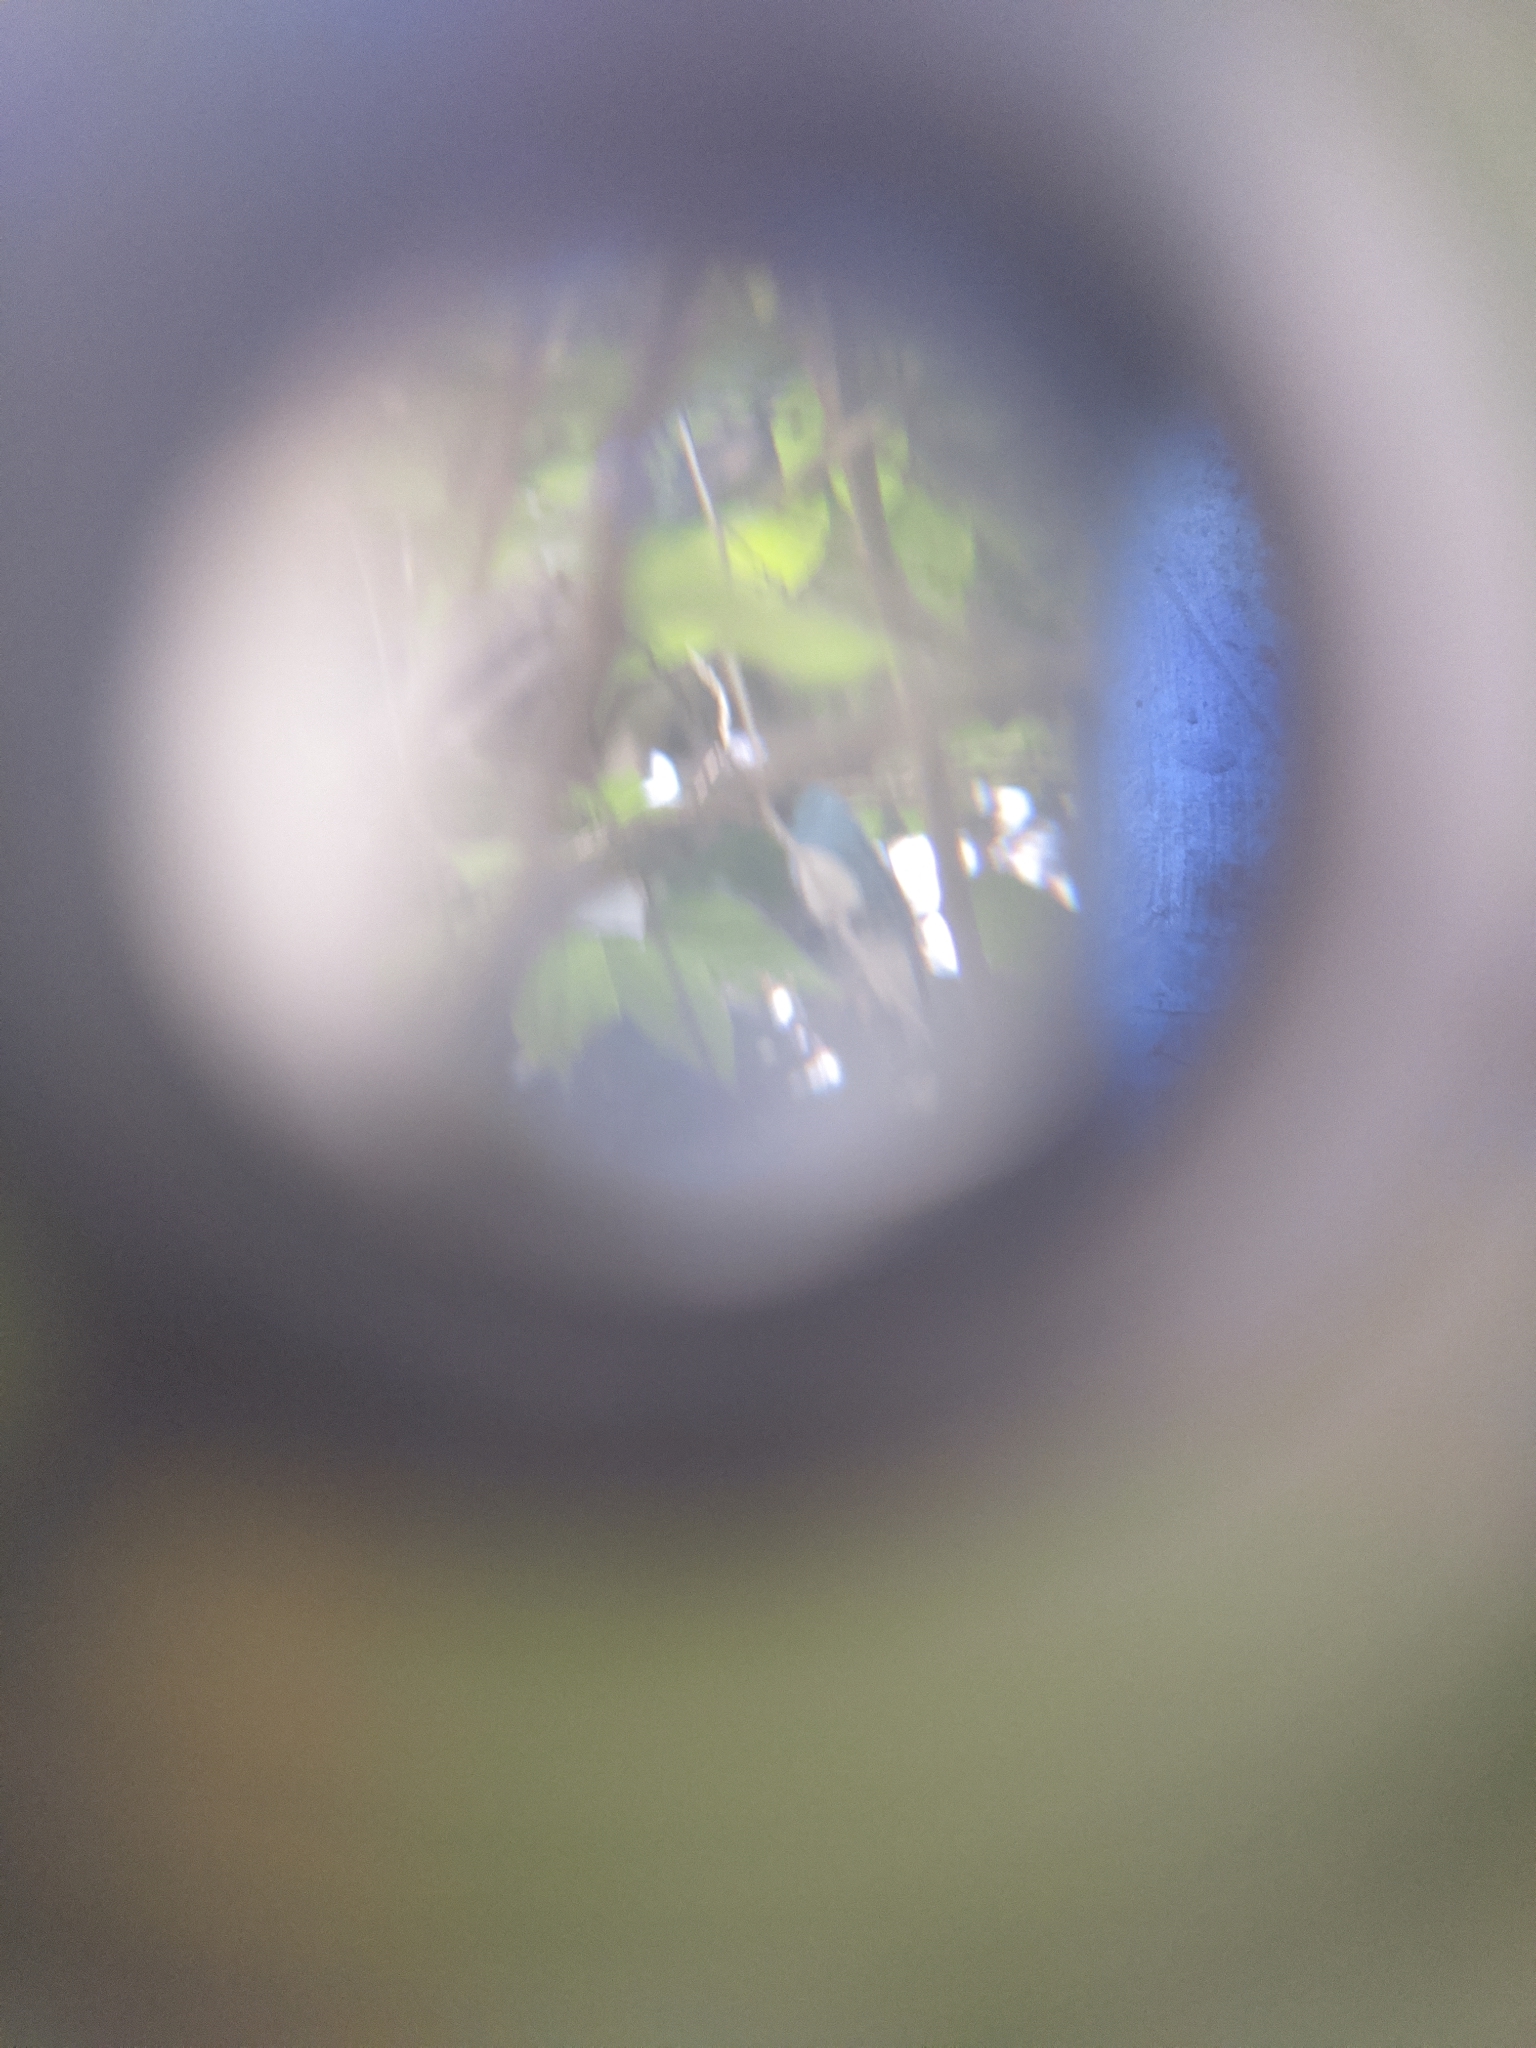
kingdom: Animalia
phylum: Chordata
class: Aves
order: Passeriformes
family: Thraupidae
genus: Tersina
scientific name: Tersina viridis
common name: Swallow tanager
